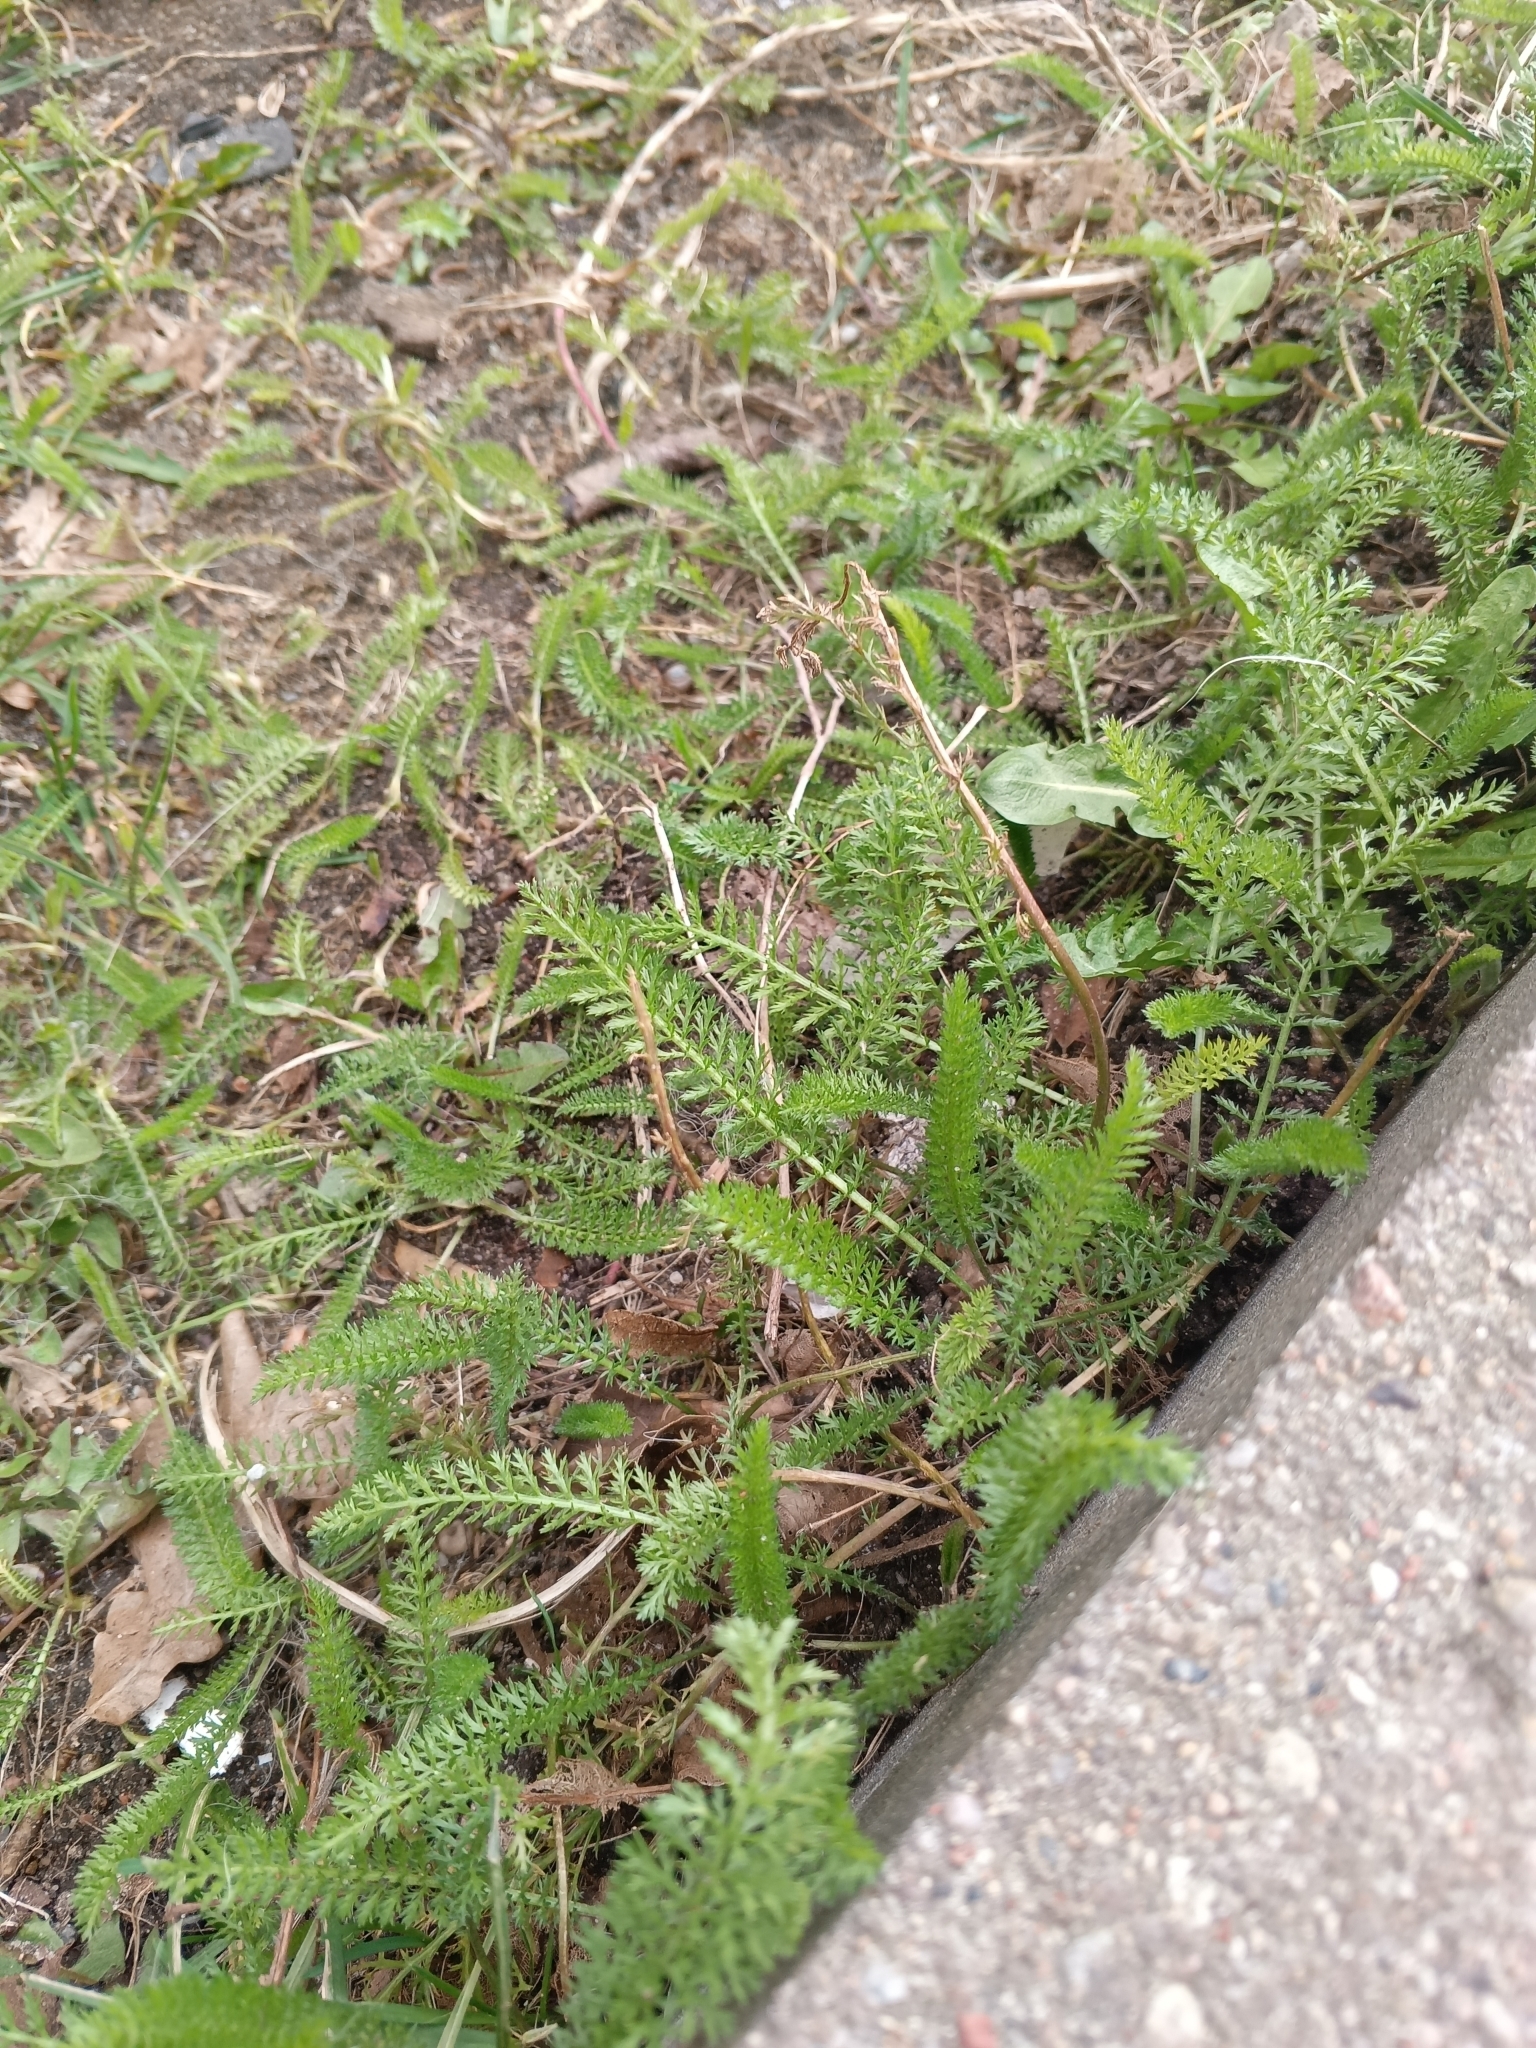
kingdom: Plantae
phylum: Tracheophyta
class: Magnoliopsida
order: Asterales
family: Asteraceae
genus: Achillea
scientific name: Achillea millefolium
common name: Yarrow
